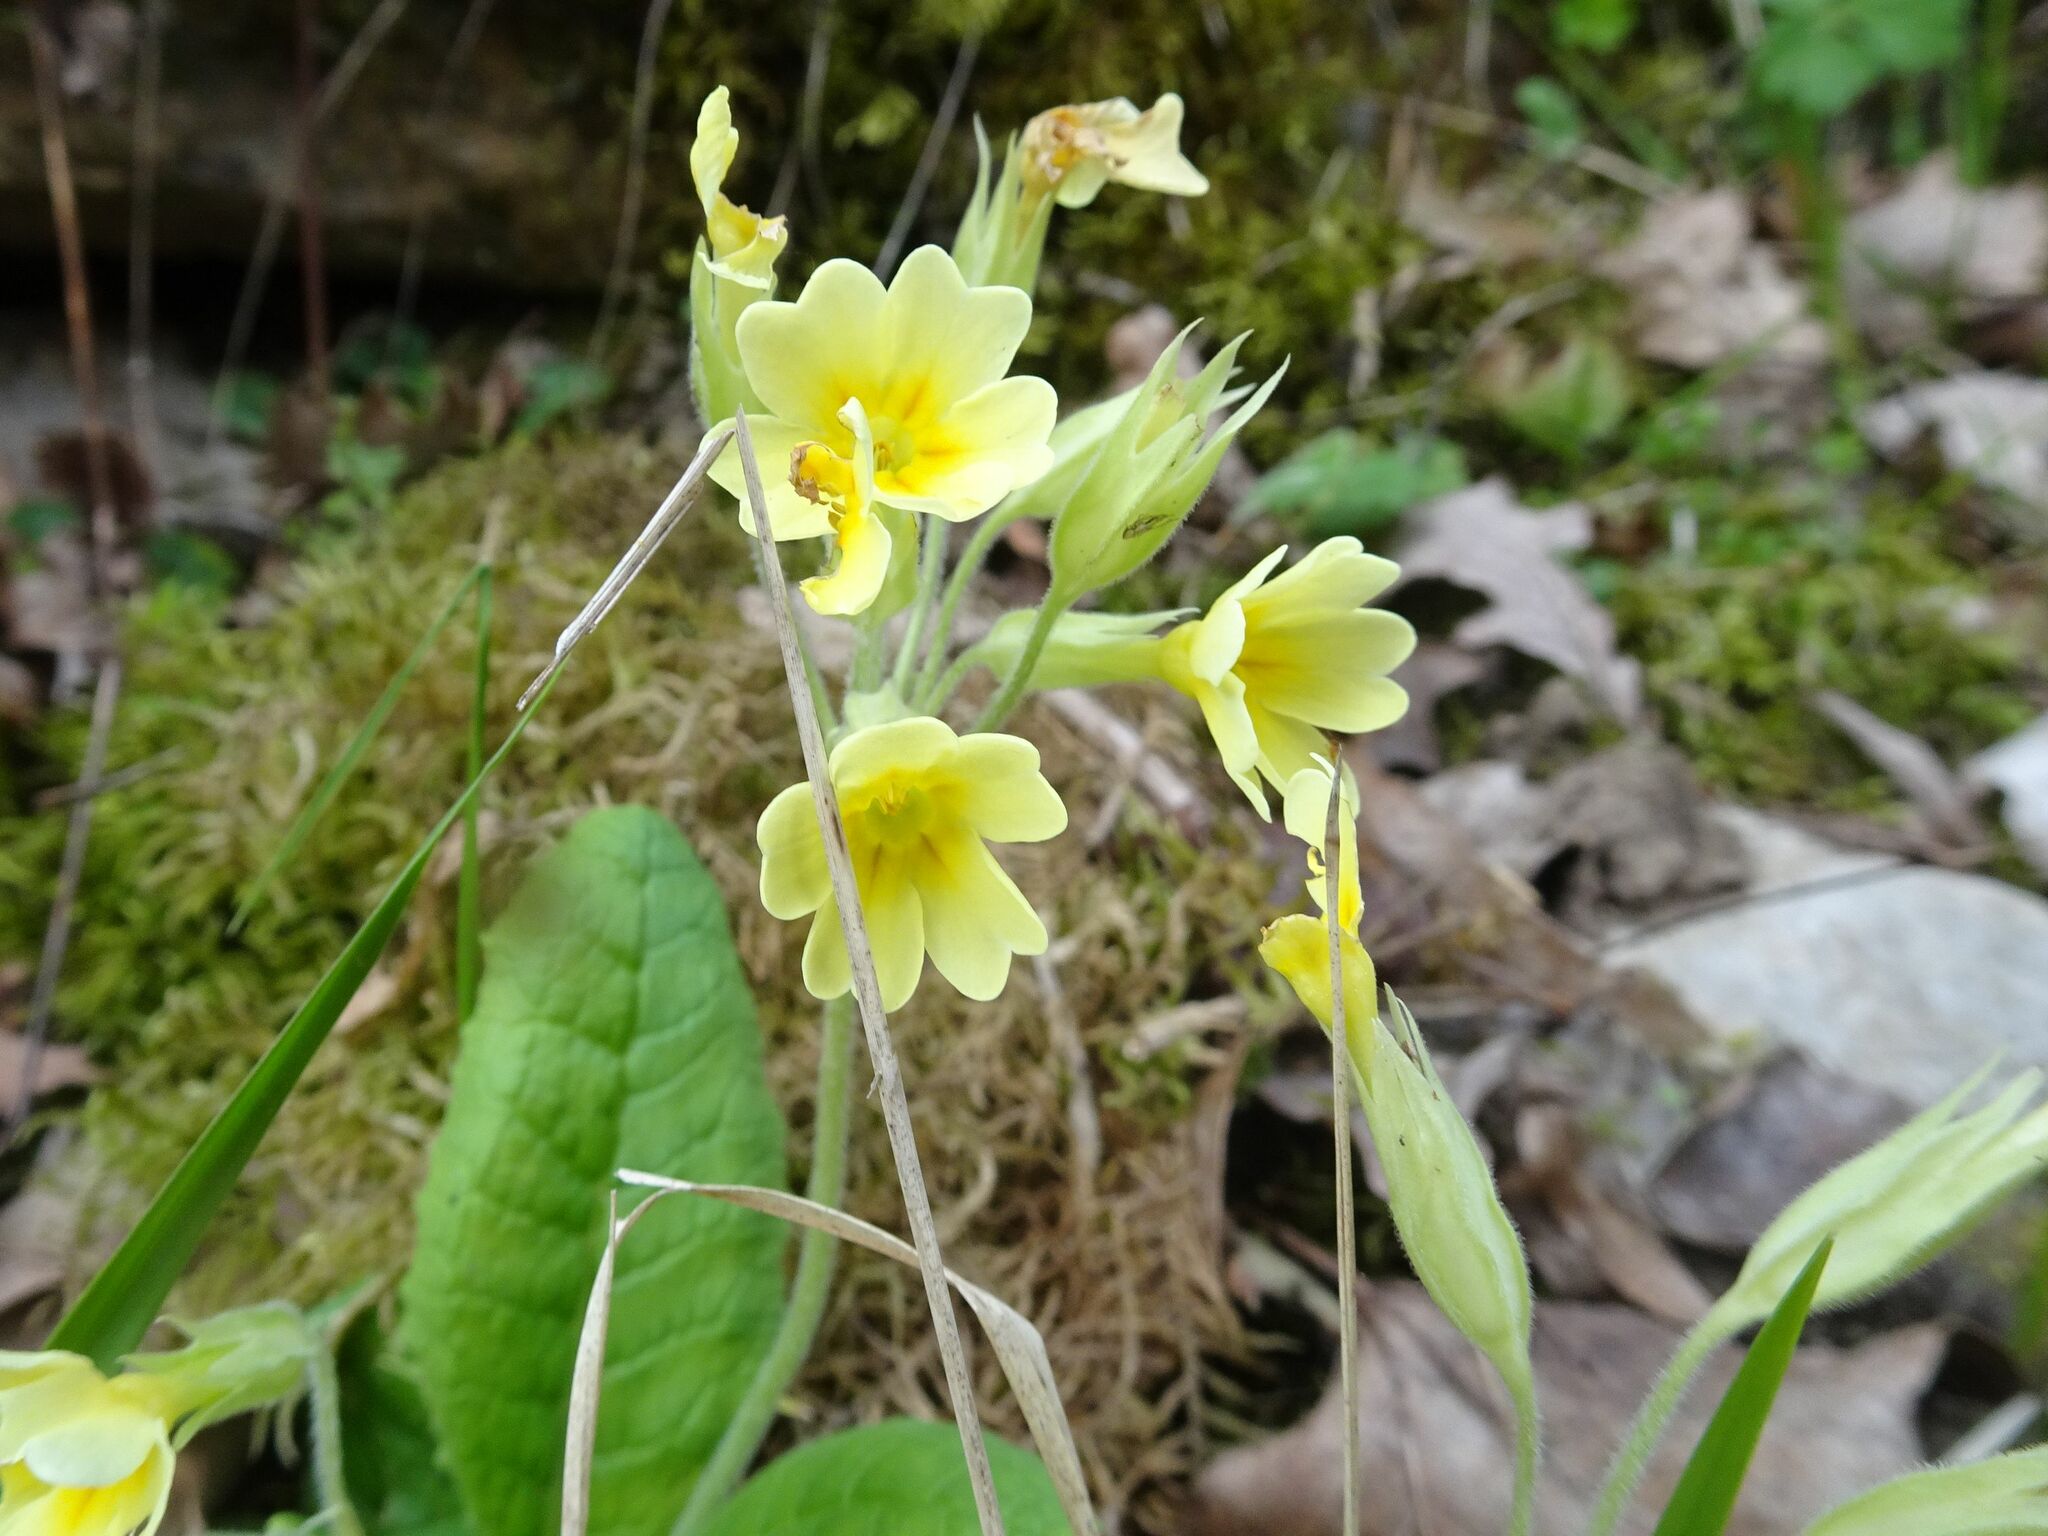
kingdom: Plantae
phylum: Tracheophyta
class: Magnoliopsida
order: Ericales
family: Primulaceae
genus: Primula
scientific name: Primula elatior
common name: Oxlip
